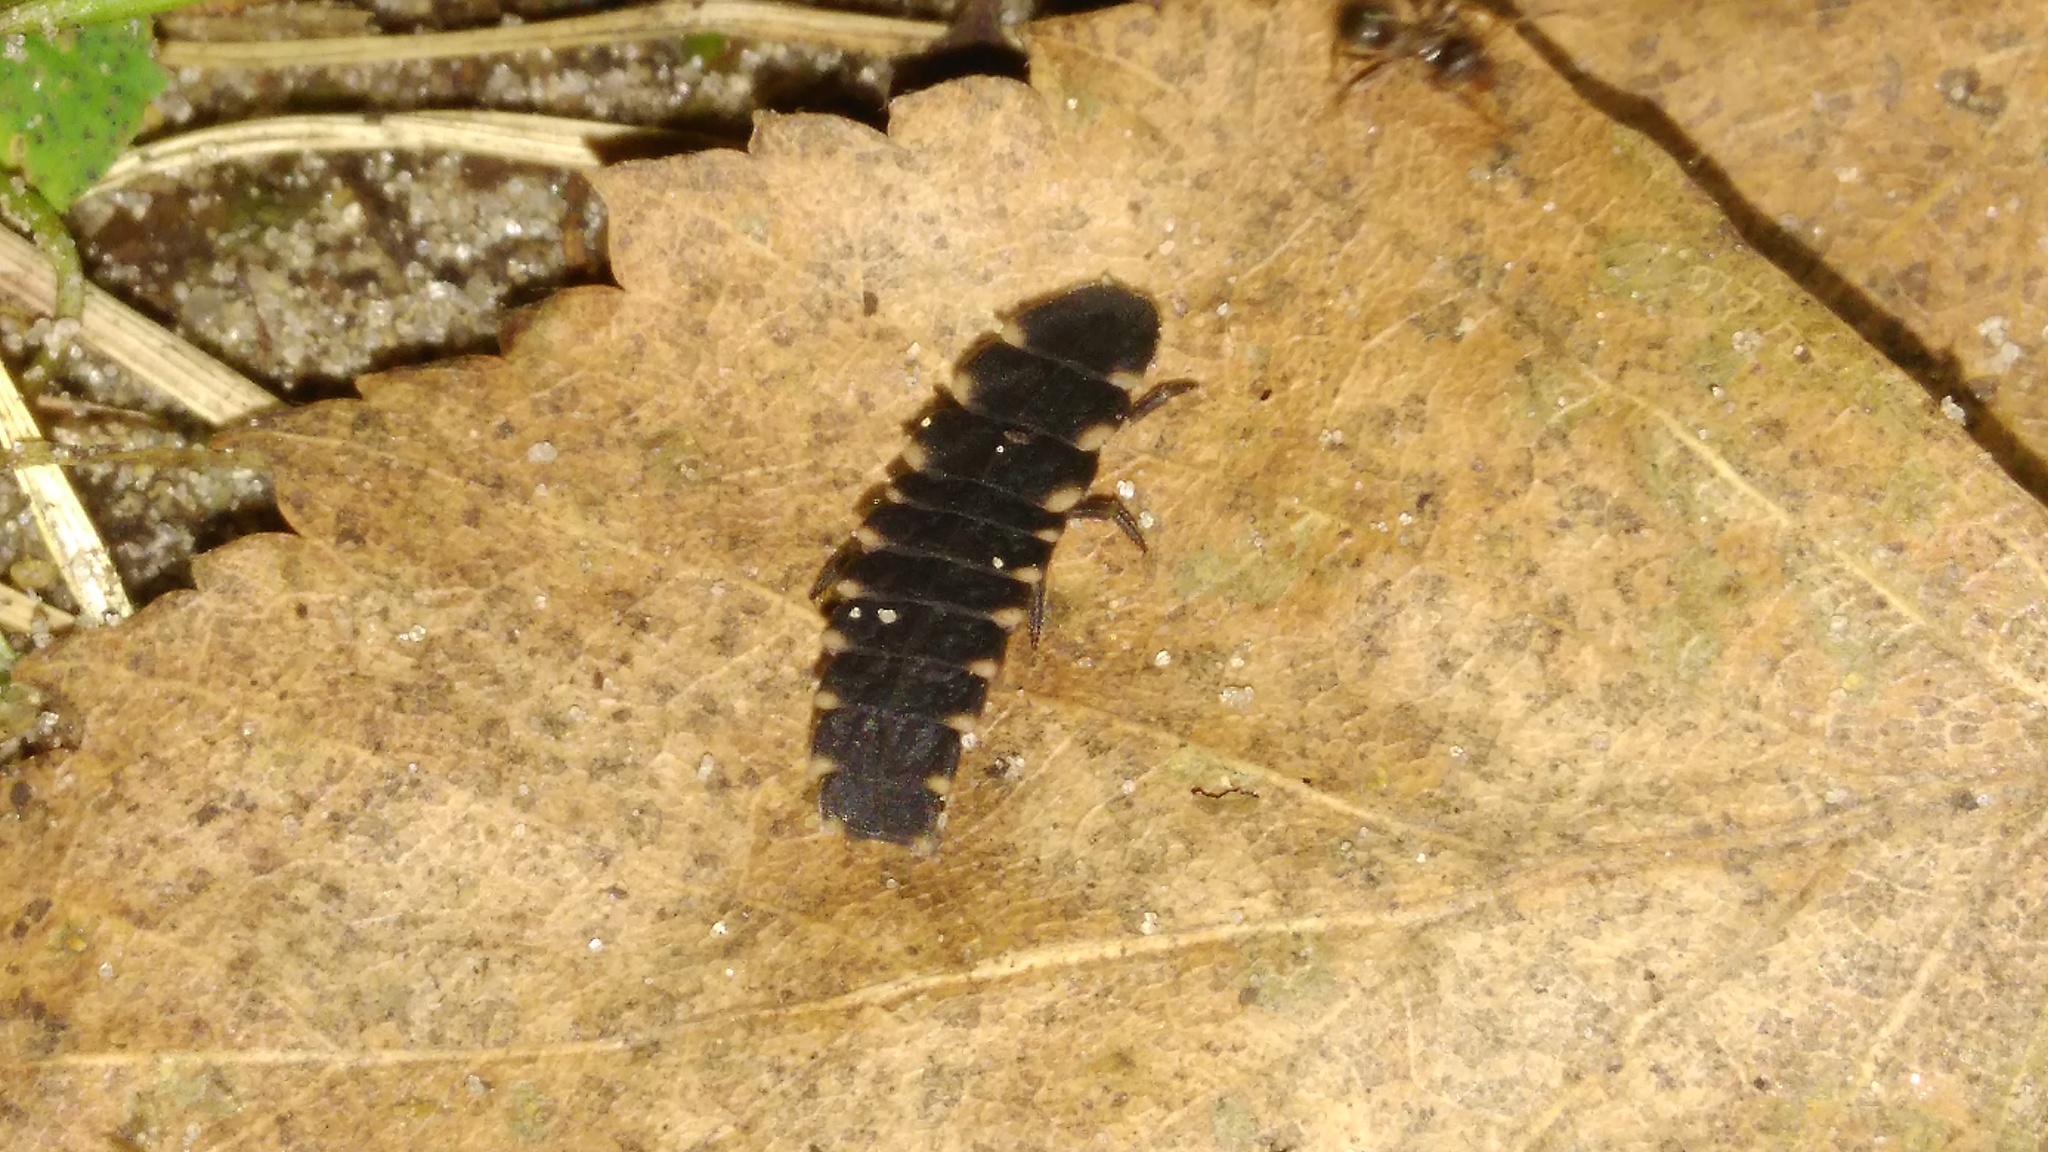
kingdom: Animalia
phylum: Arthropoda
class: Insecta
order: Coleoptera
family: Lampyridae
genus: Lampyris
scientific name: Lampyris noctiluca
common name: Glow-worm
